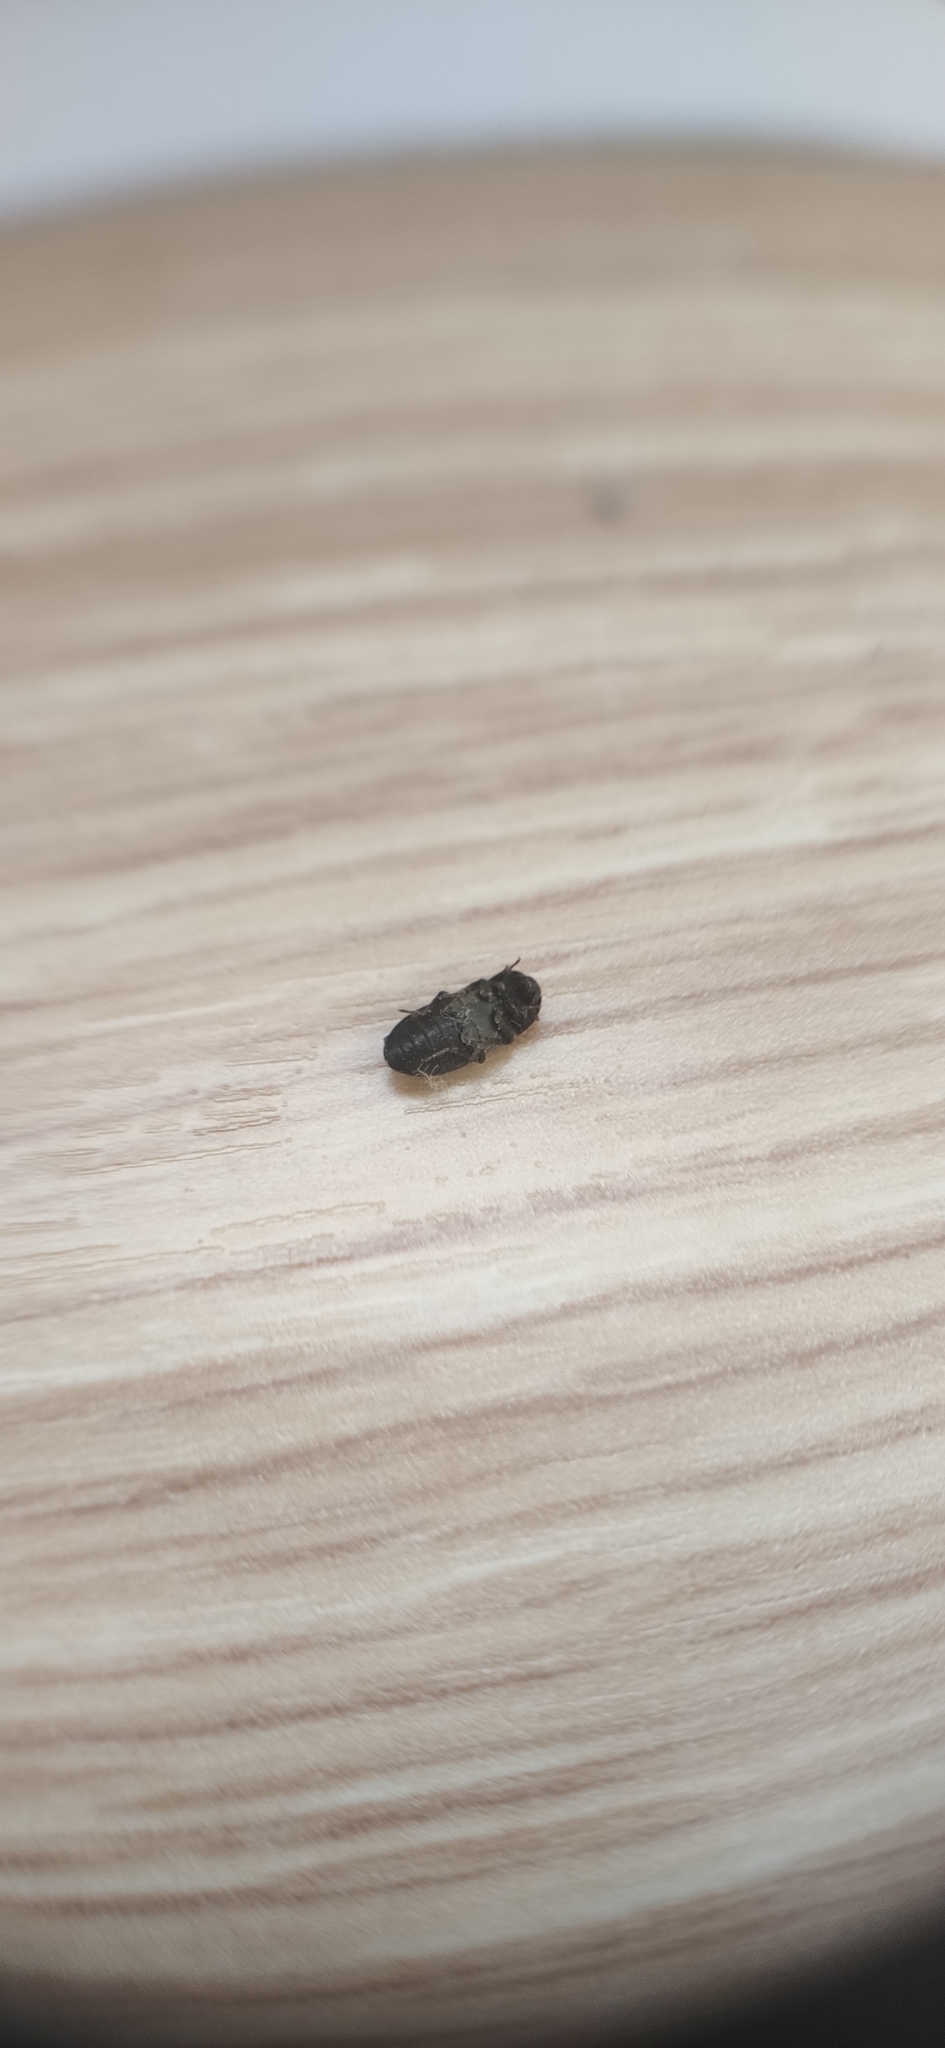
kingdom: Animalia
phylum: Arthropoda
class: Insecta
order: Coleoptera
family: Dermestidae
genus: Dermestes
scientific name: Dermestes lardarius
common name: Larder beetle
